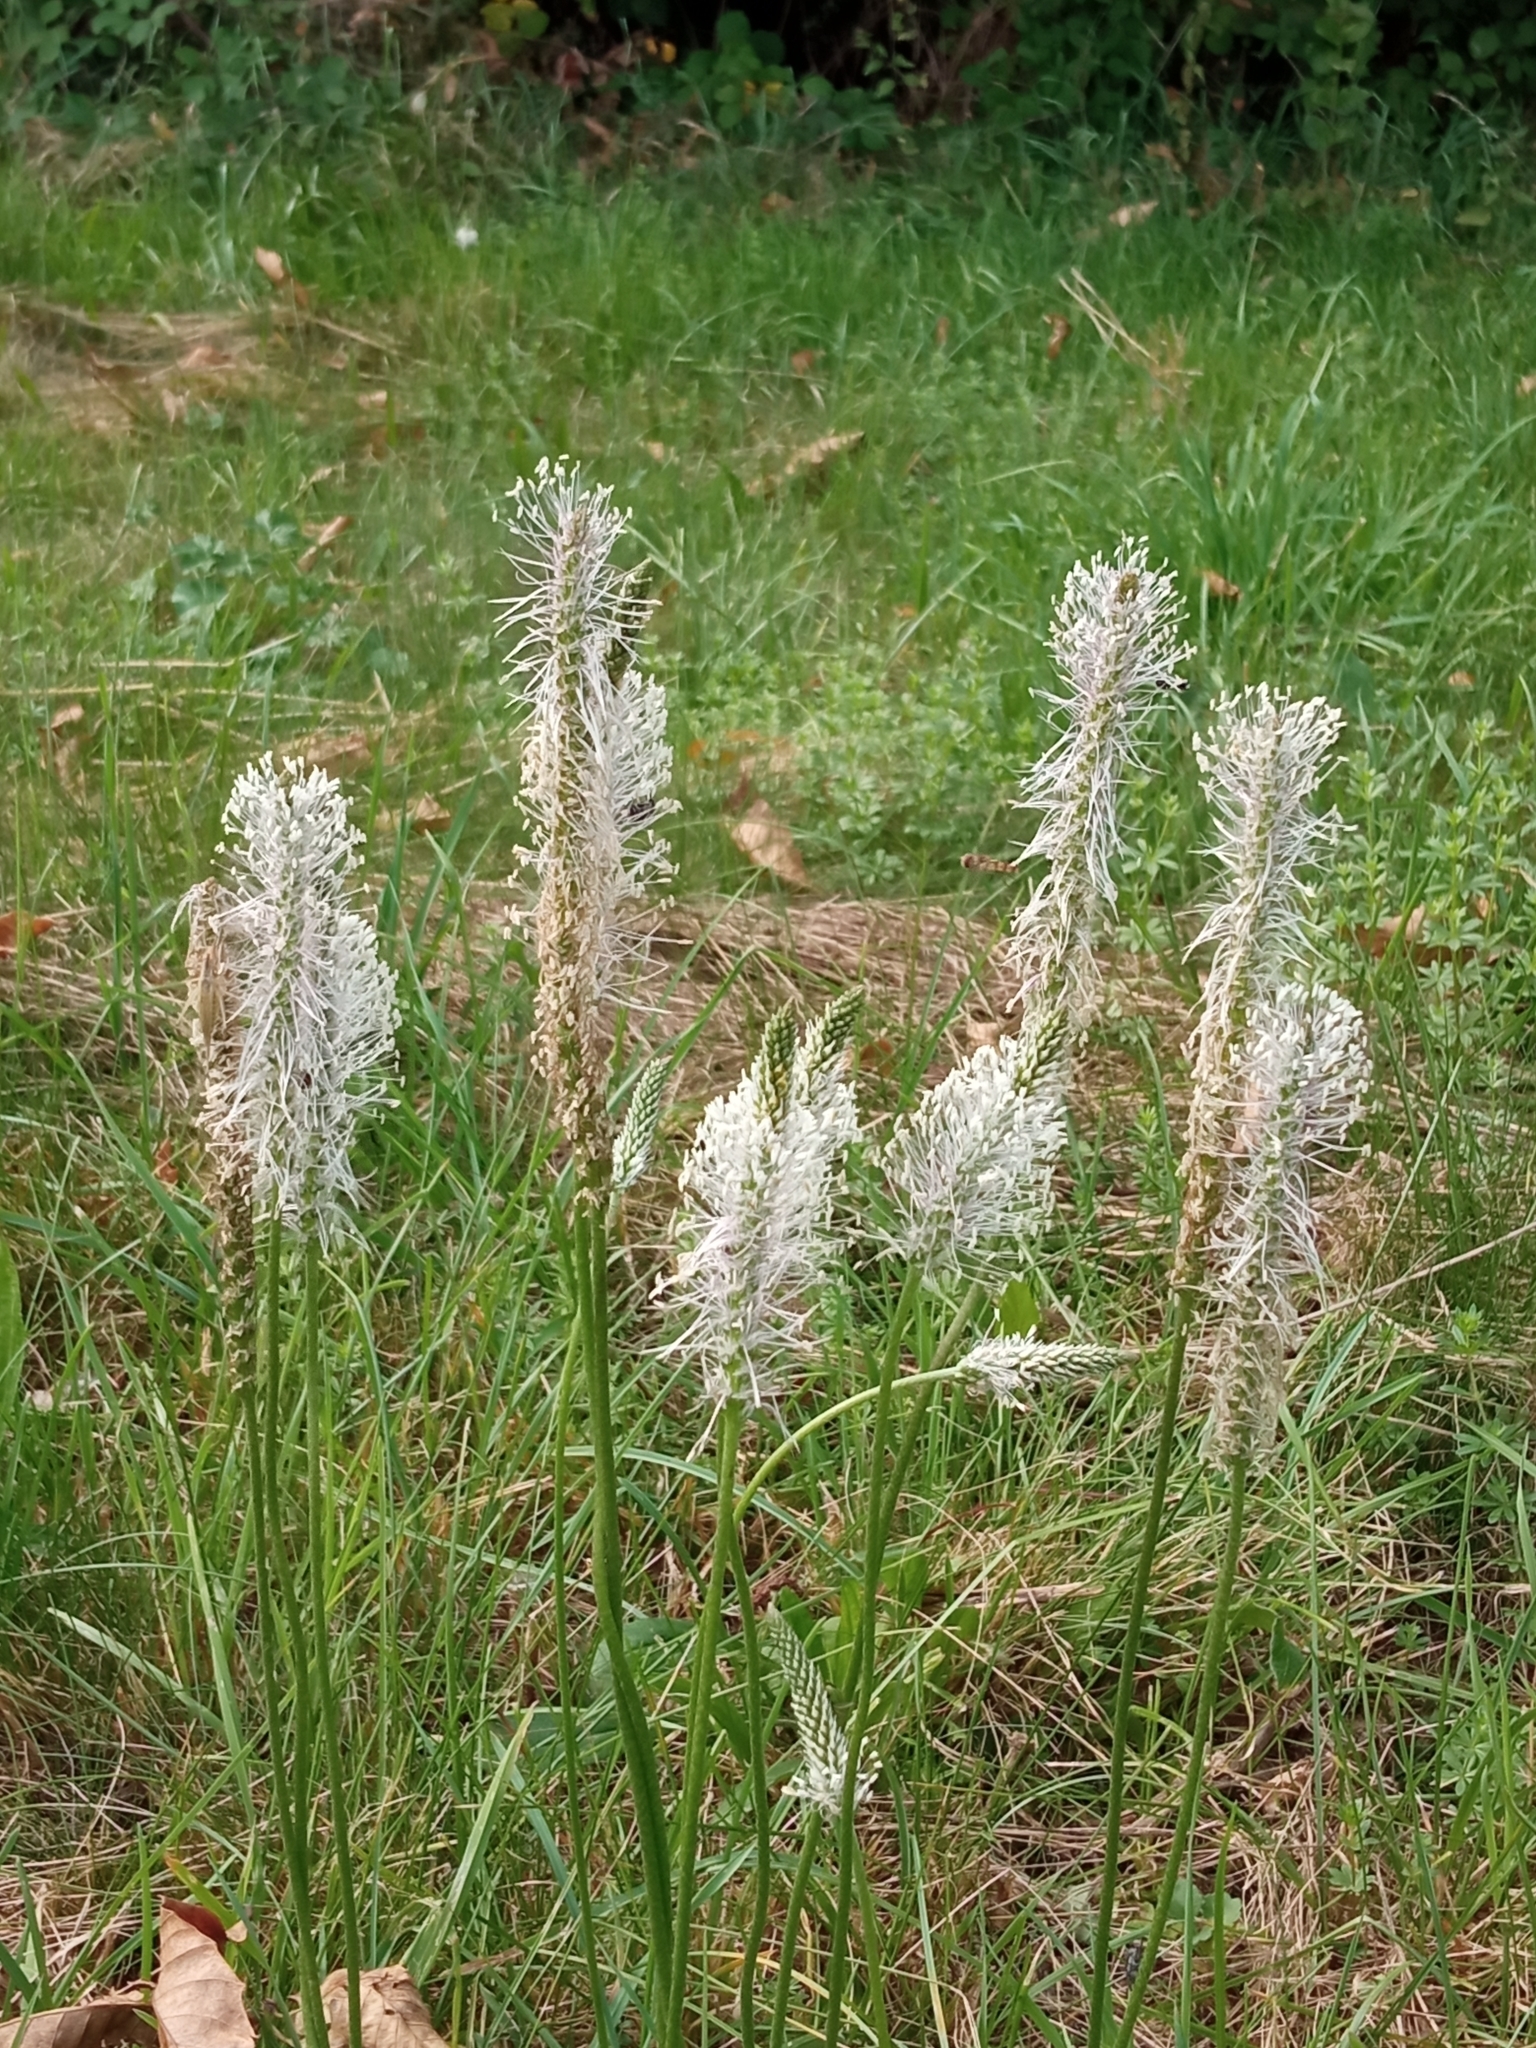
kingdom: Plantae
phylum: Tracheophyta
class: Magnoliopsida
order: Lamiales
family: Plantaginaceae
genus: Plantago
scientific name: Plantago media
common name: Hoary plantain
